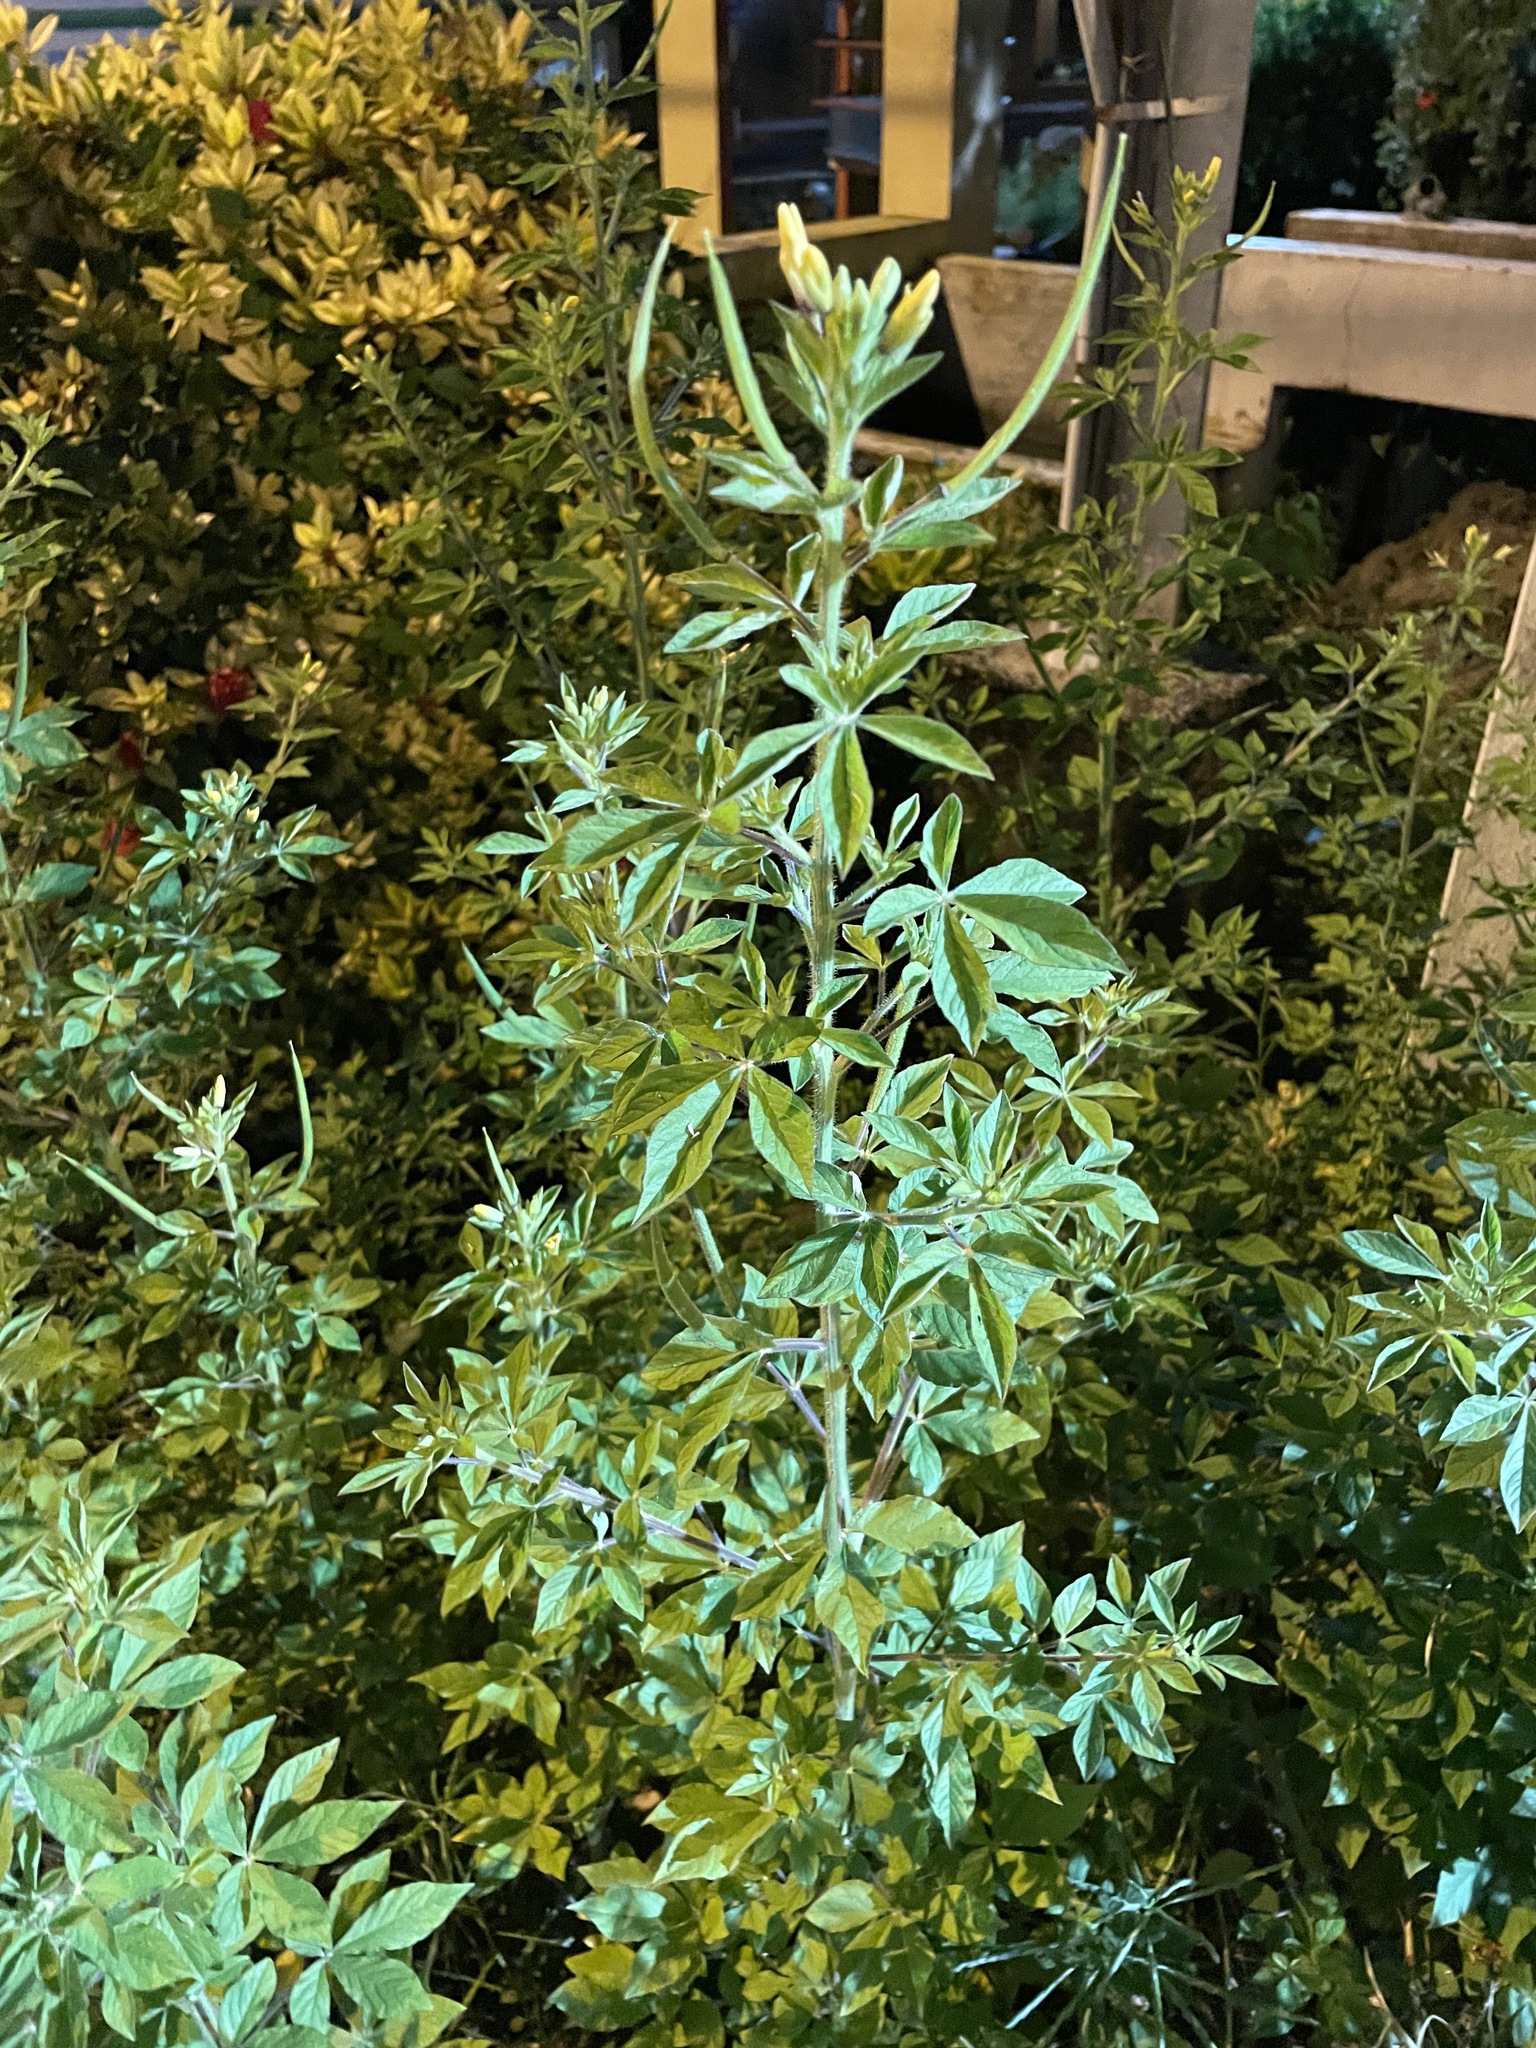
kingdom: Plantae
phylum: Tracheophyta
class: Magnoliopsida
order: Brassicales
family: Cleomaceae
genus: Arivela
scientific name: Arivela viscosa
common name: Asian spiderflower
